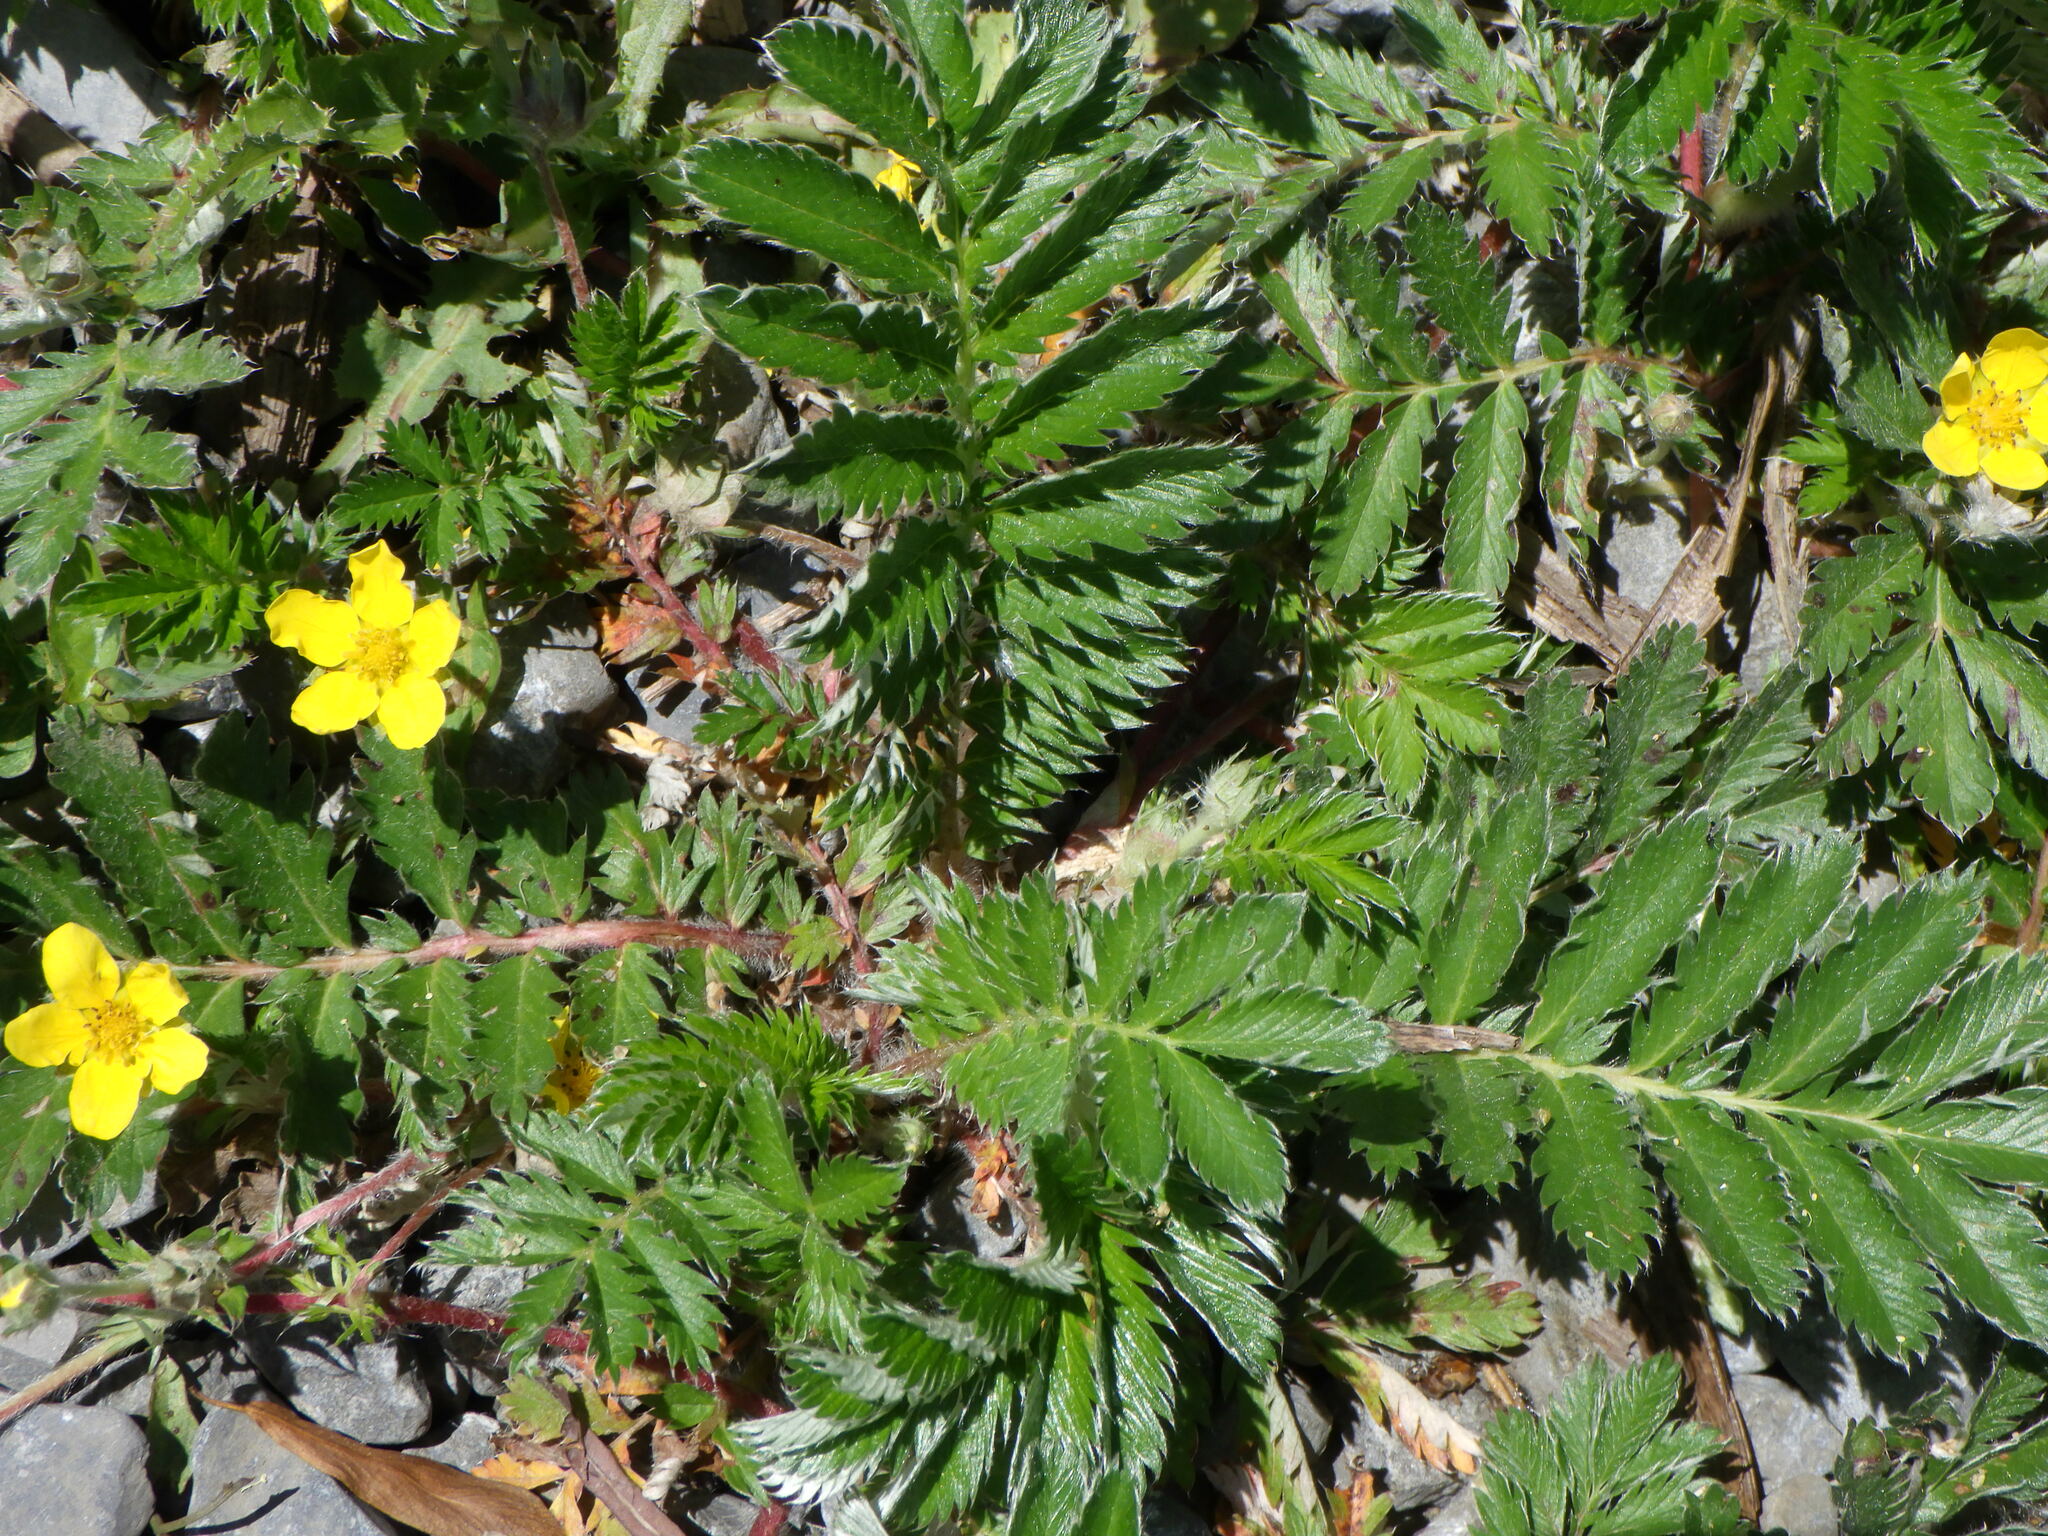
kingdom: Plantae
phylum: Tracheophyta
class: Magnoliopsida
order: Rosales
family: Rosaceae
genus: Argentina
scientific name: Argentina anserina
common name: Common silverweed
